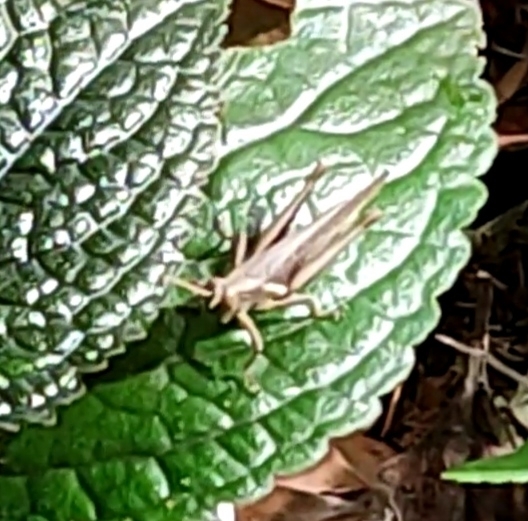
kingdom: Animalia
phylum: Arthropoda
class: Insecta
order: Orthoptera
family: Acrididae
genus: Abracris
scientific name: Abracris flavolineata
